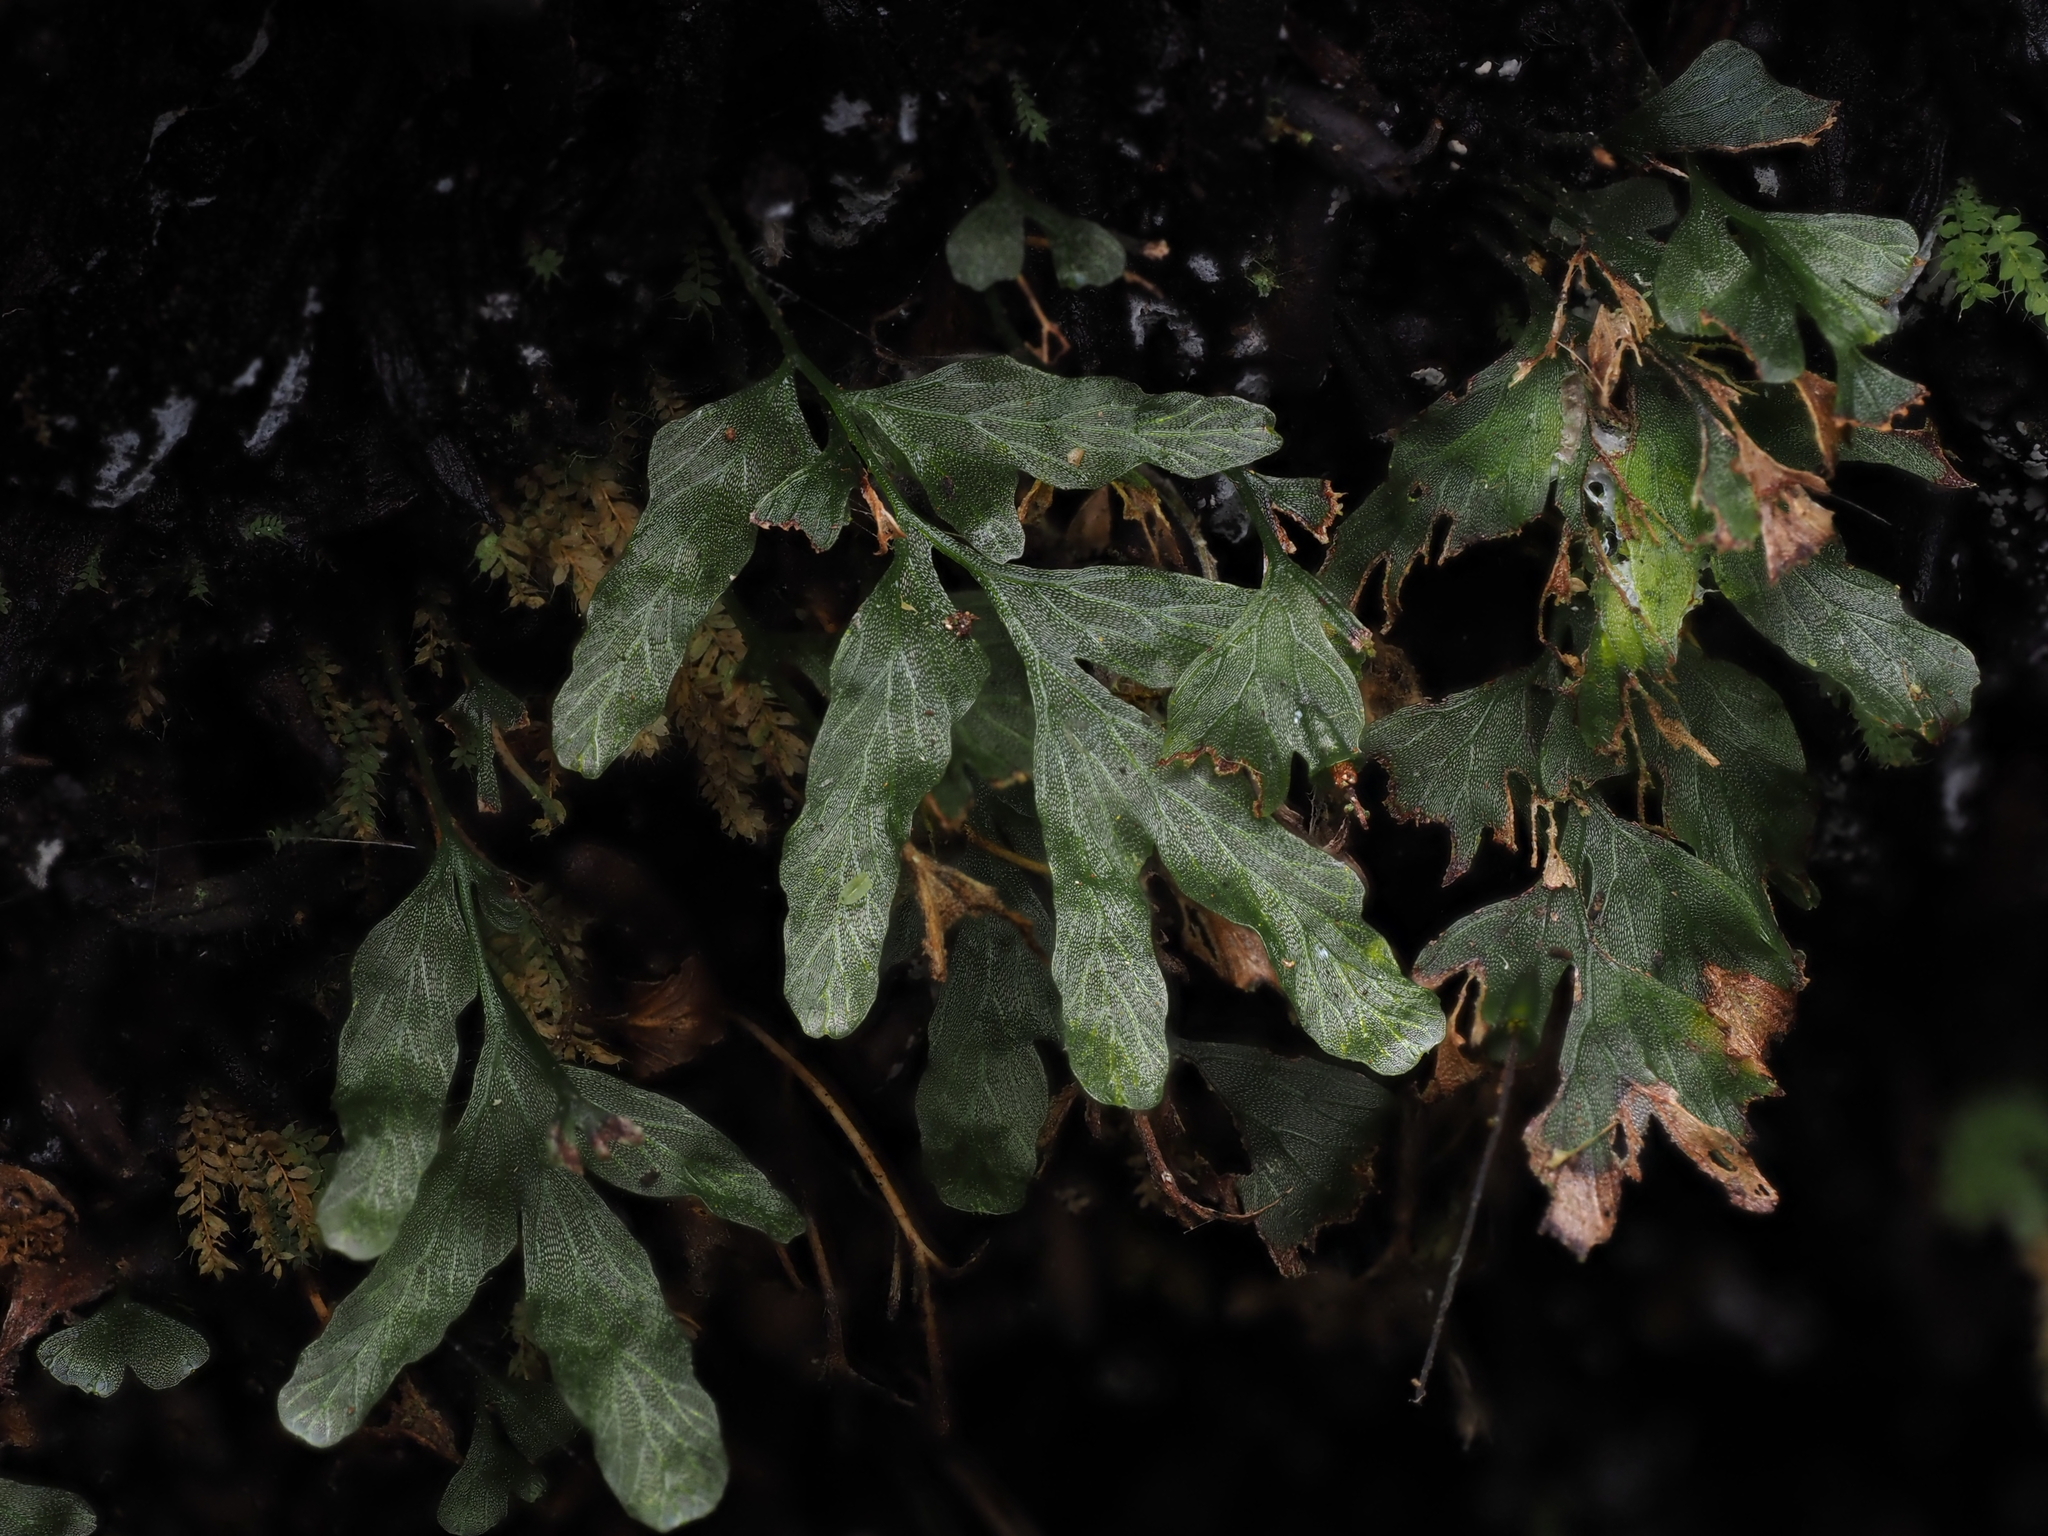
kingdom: Plantae
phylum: Tracheophyta
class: Polypodiopsida
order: Hymenophyllales
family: Hymenophyllaceae
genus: Polyphlebium
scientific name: Polyphlebium venosum
